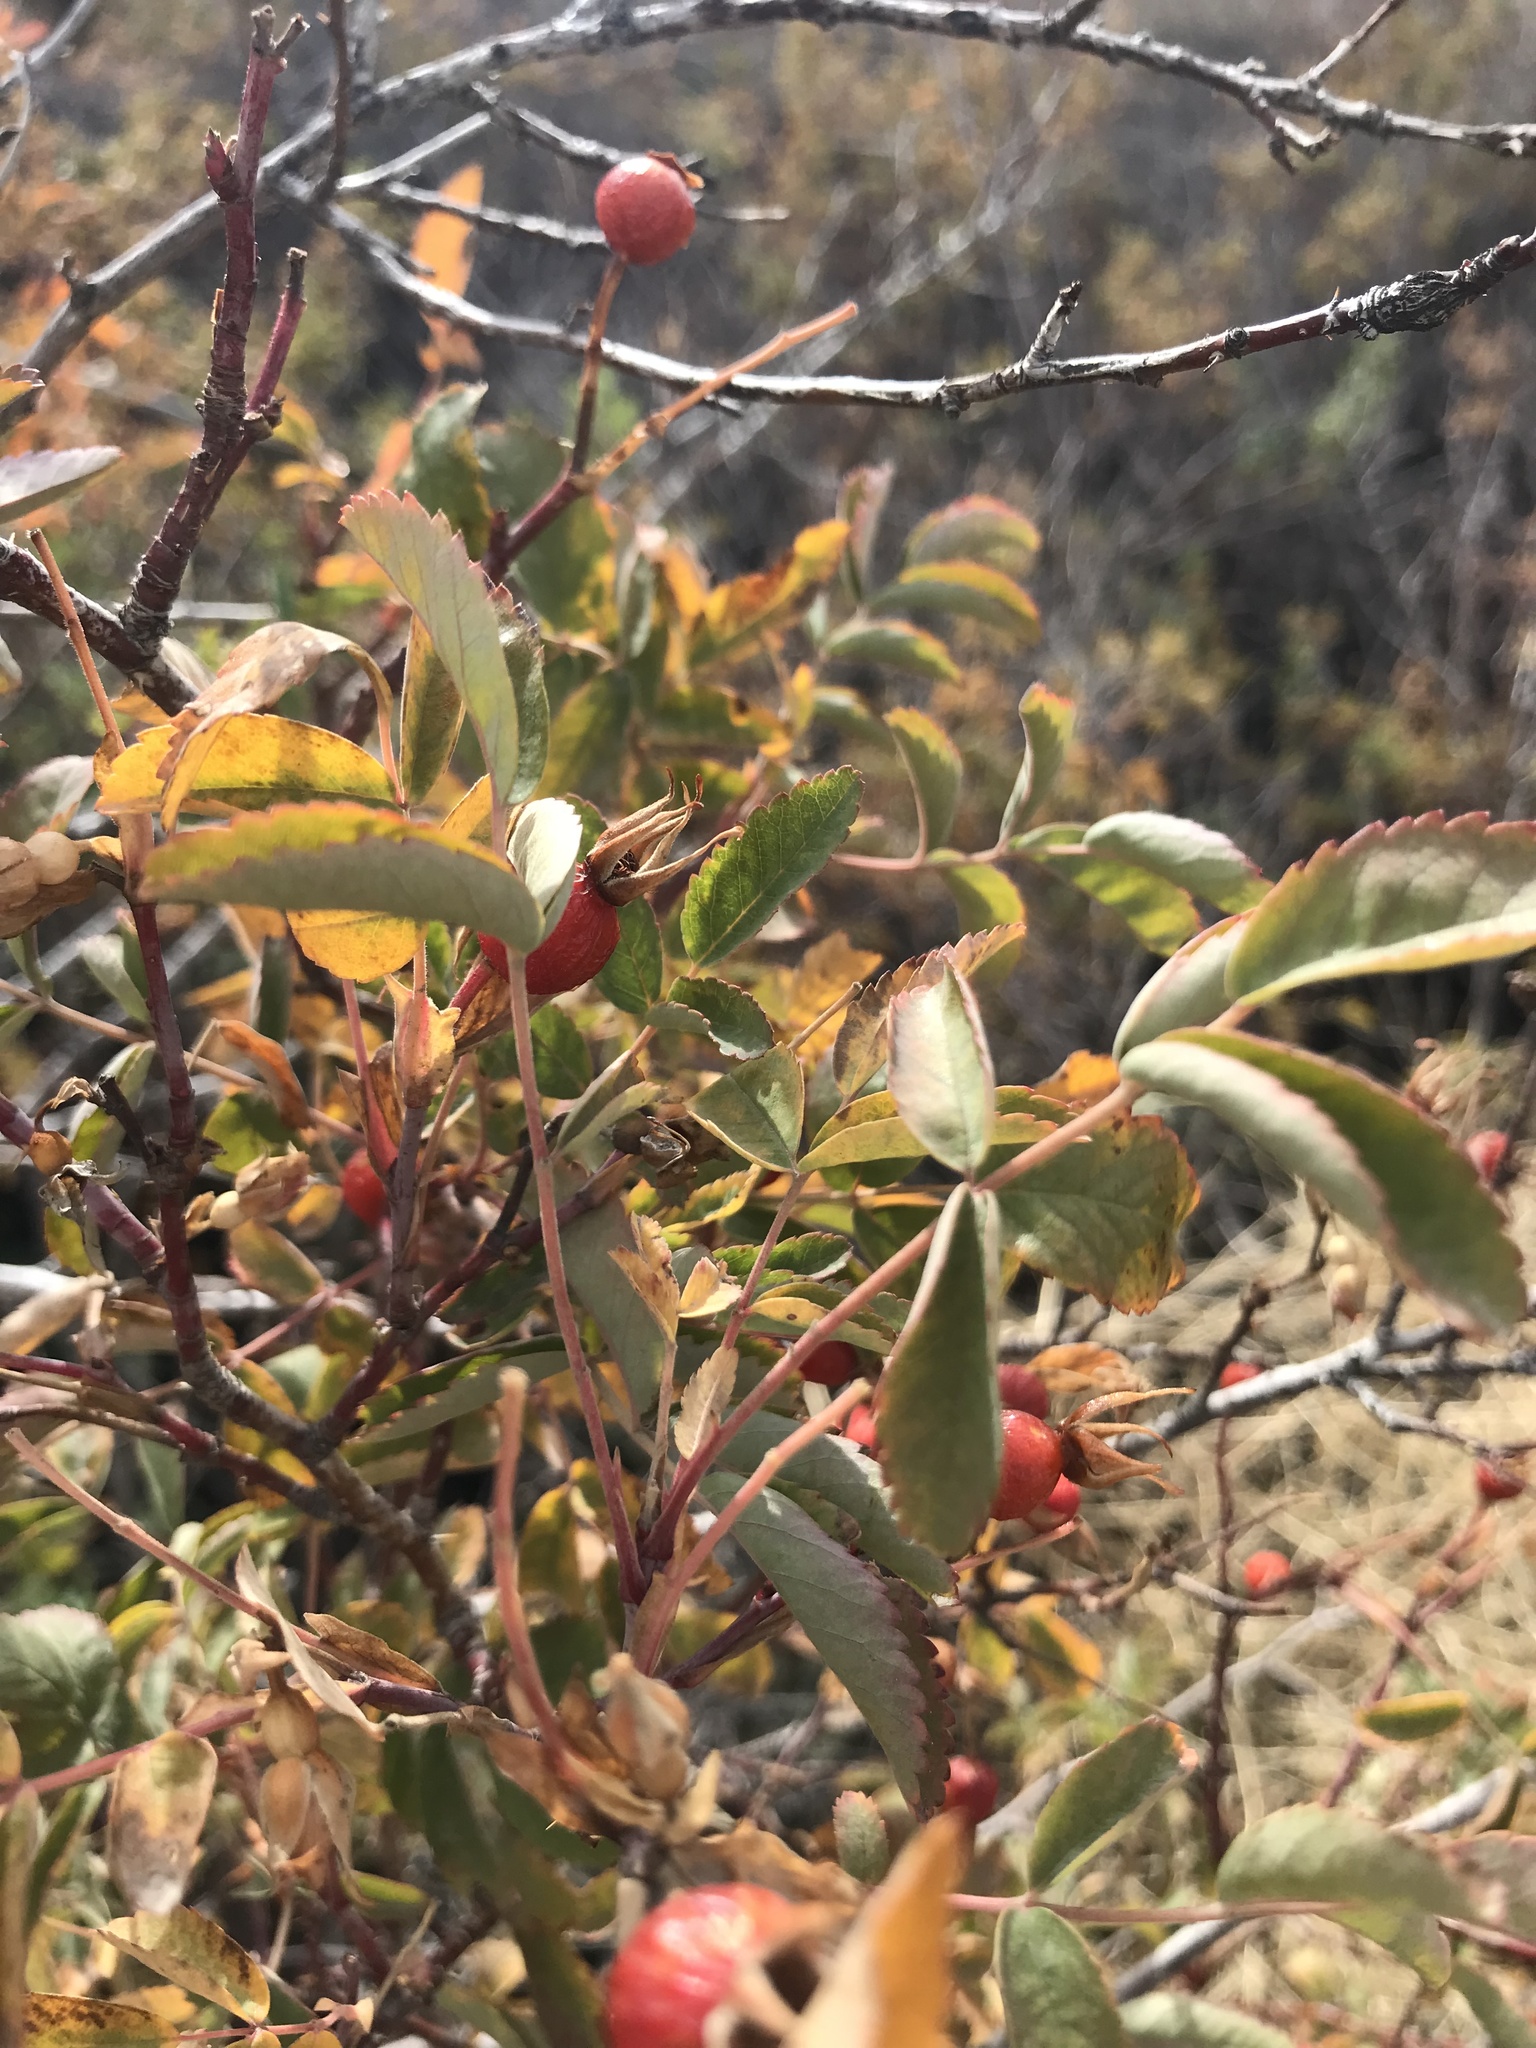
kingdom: Plantae
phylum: Tracheophyta
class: Magnoliopsida
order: Rosales
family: Rosaceae
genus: Rosa
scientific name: Rosa woodsii
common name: Woods's rose
